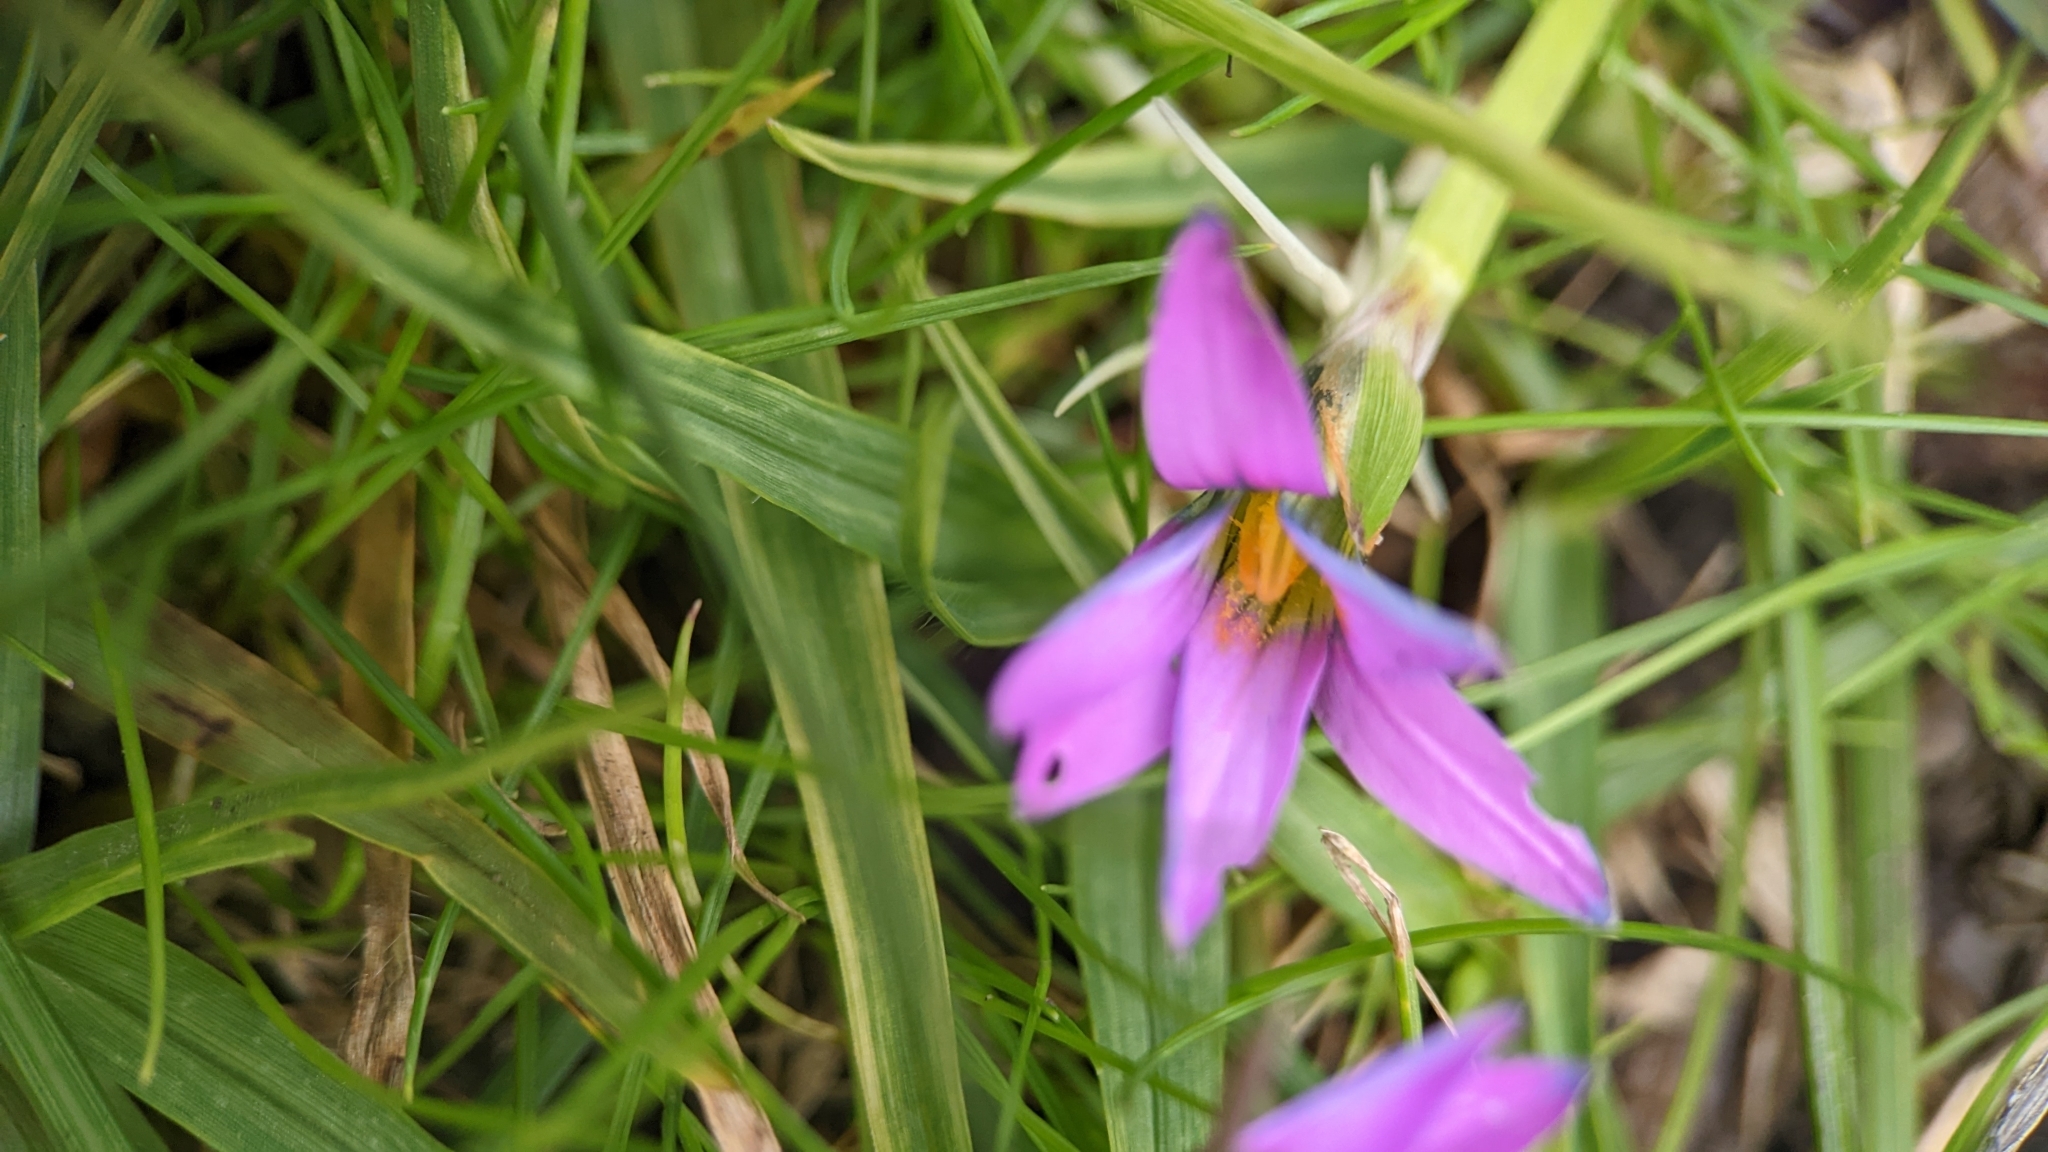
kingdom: Plantae
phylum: Tracheophyta
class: Liliopsida
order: Asparagales
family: Iridaceae
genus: Romulea
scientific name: Romulea rosea
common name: Oniongrass
